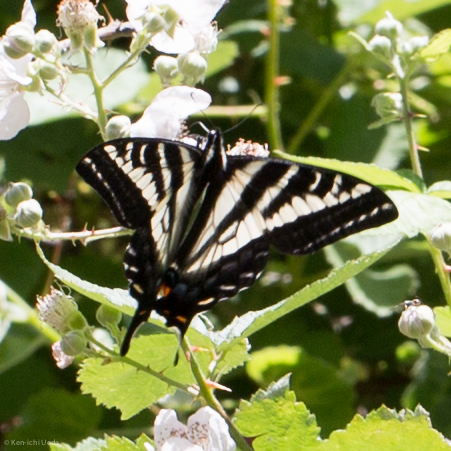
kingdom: Animalia
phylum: Arthropoda
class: Insecta
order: Lepidoptera
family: Papilionidae
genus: Papilio
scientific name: Papilio eurymedon
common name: Pale tiger swallowtail
